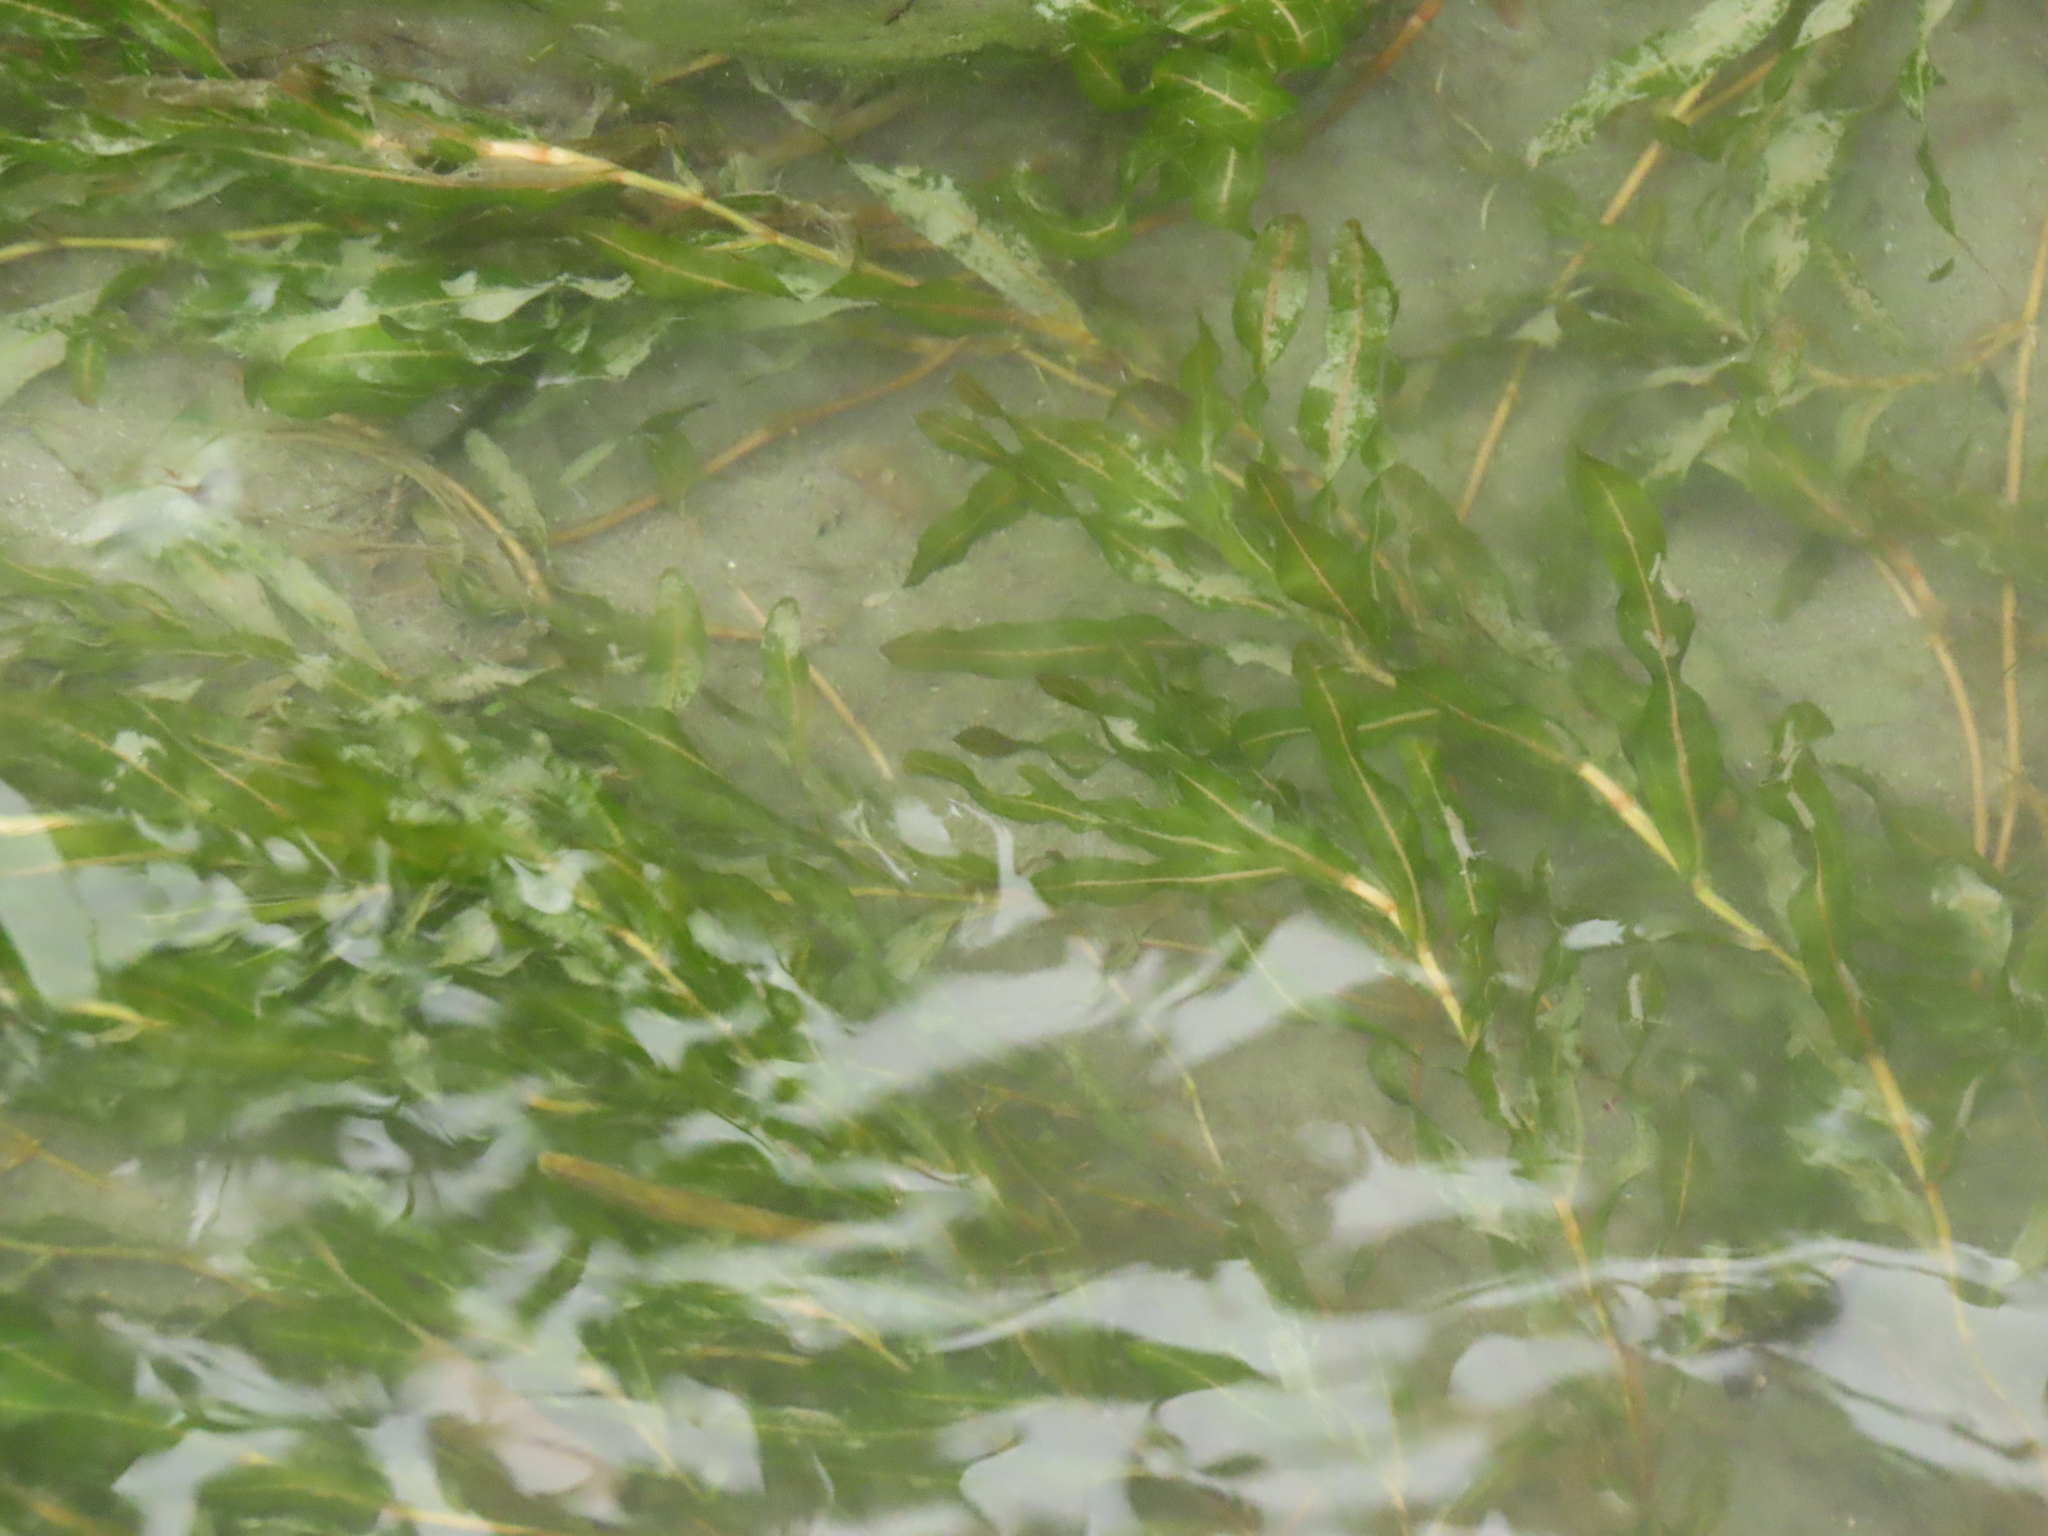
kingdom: Plantae
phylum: Tracheophyta
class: Liliopsida
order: Alismatales
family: Potamogetonaceae
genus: Potamogeton
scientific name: Potamogeton crispus
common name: Curled pondweed
